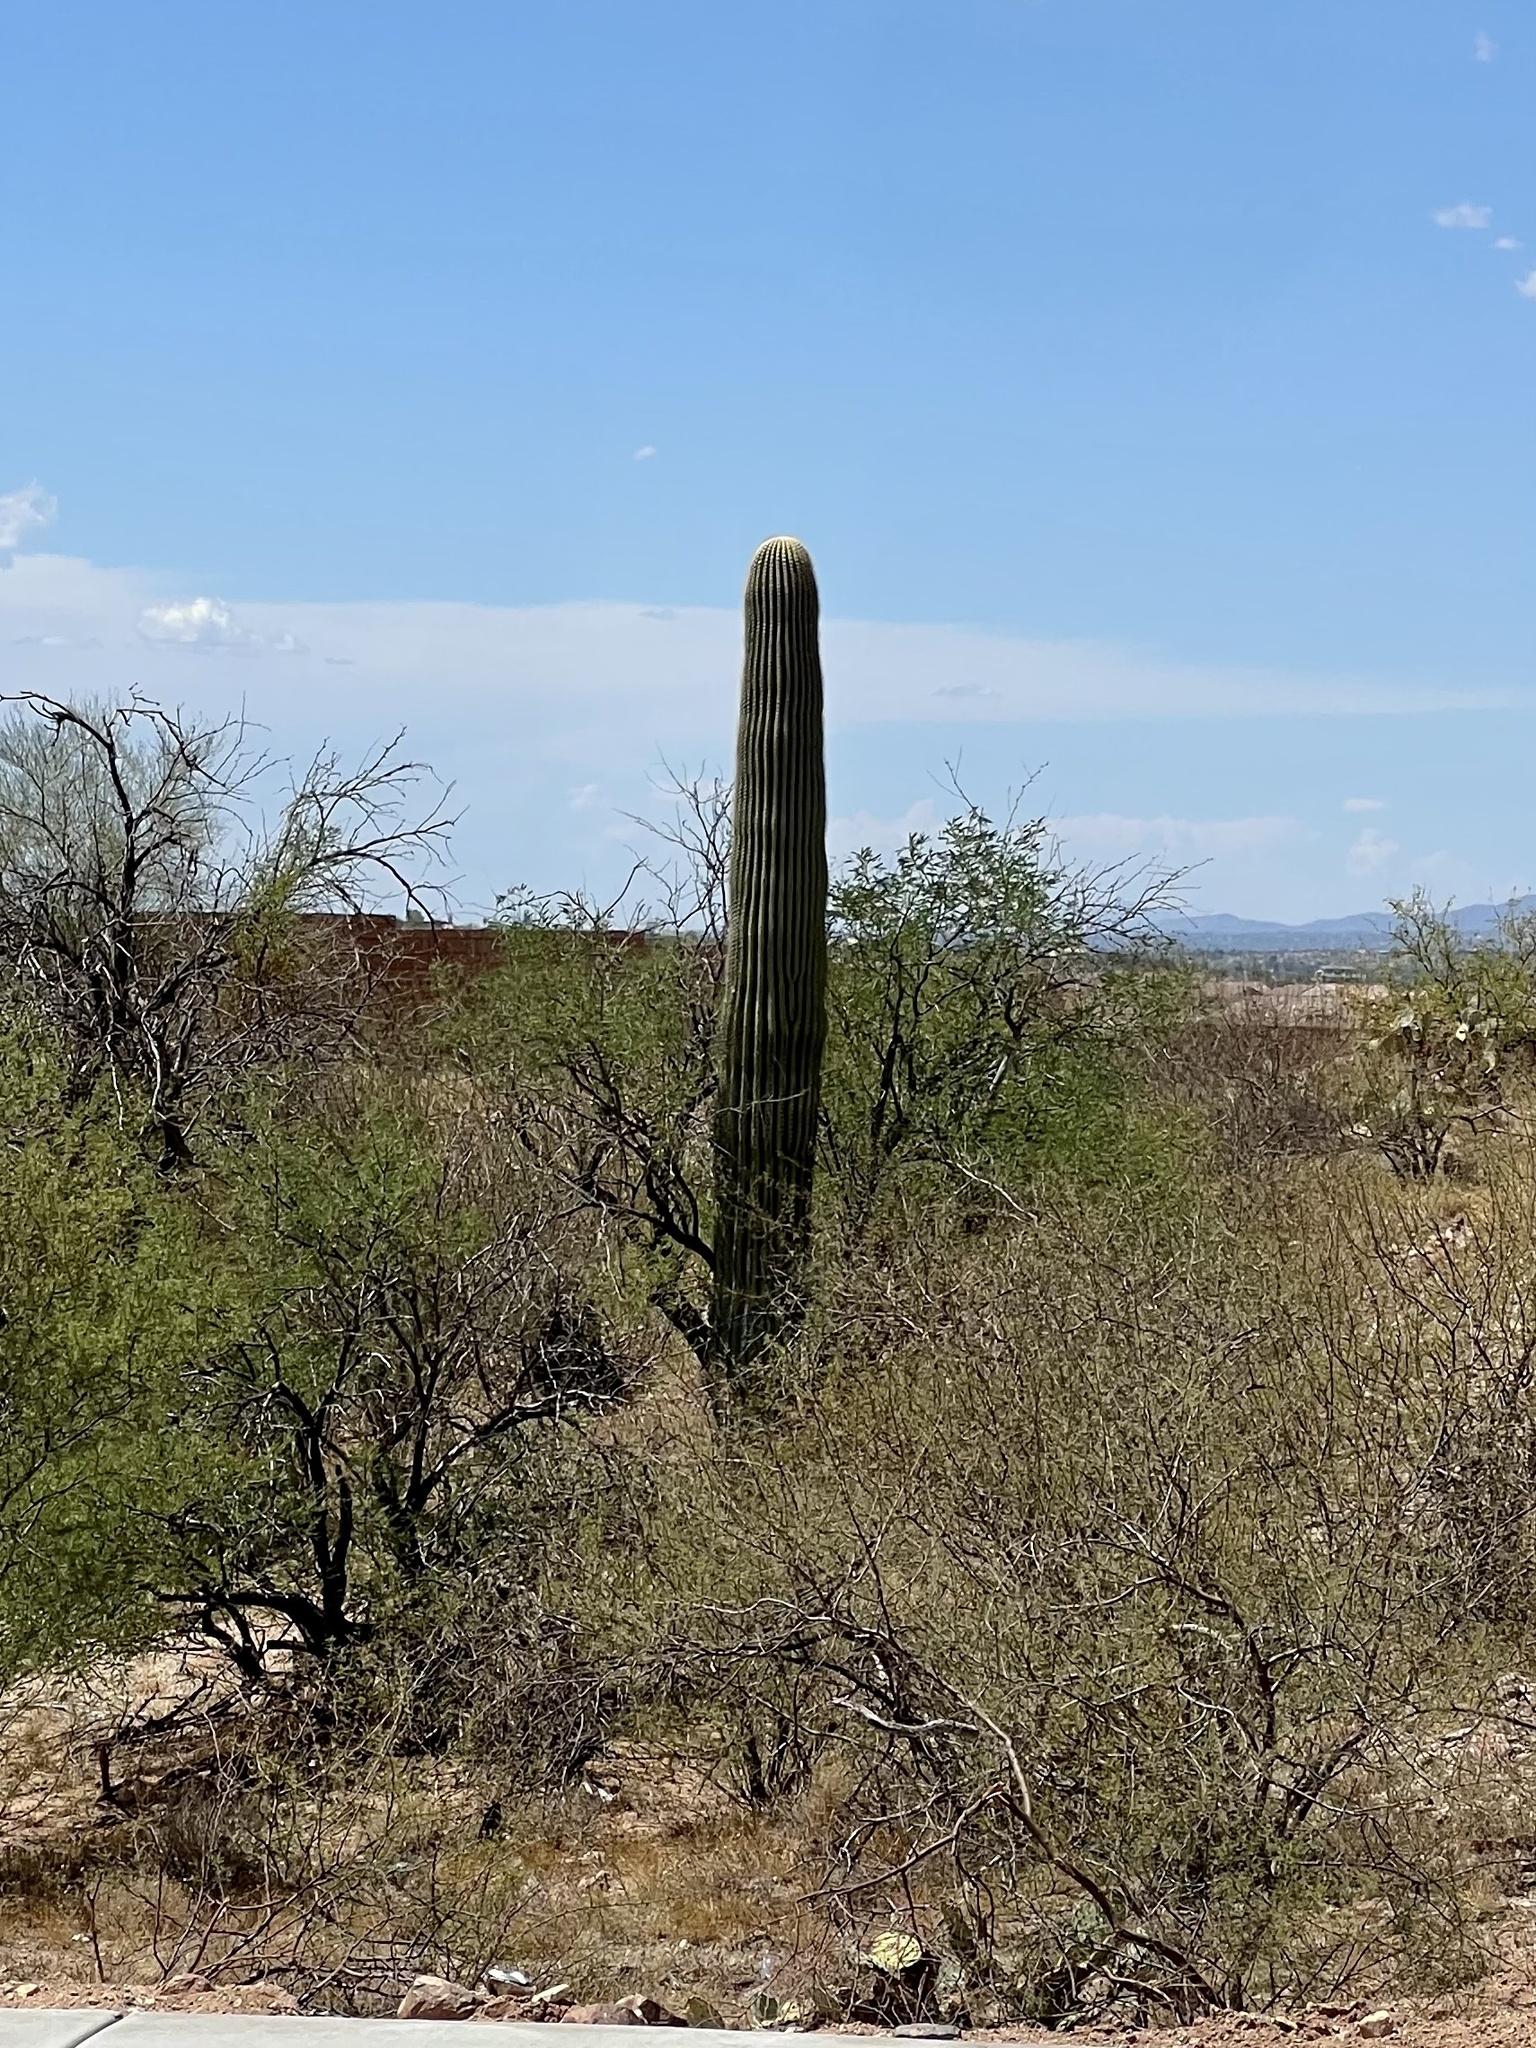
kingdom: Plantae
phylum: Tracheophyta
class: Magnoliopsida
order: Caryophyllales
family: Cactaceae
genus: Carnegiea
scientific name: Carnegiea gigantea
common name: Saguaro
